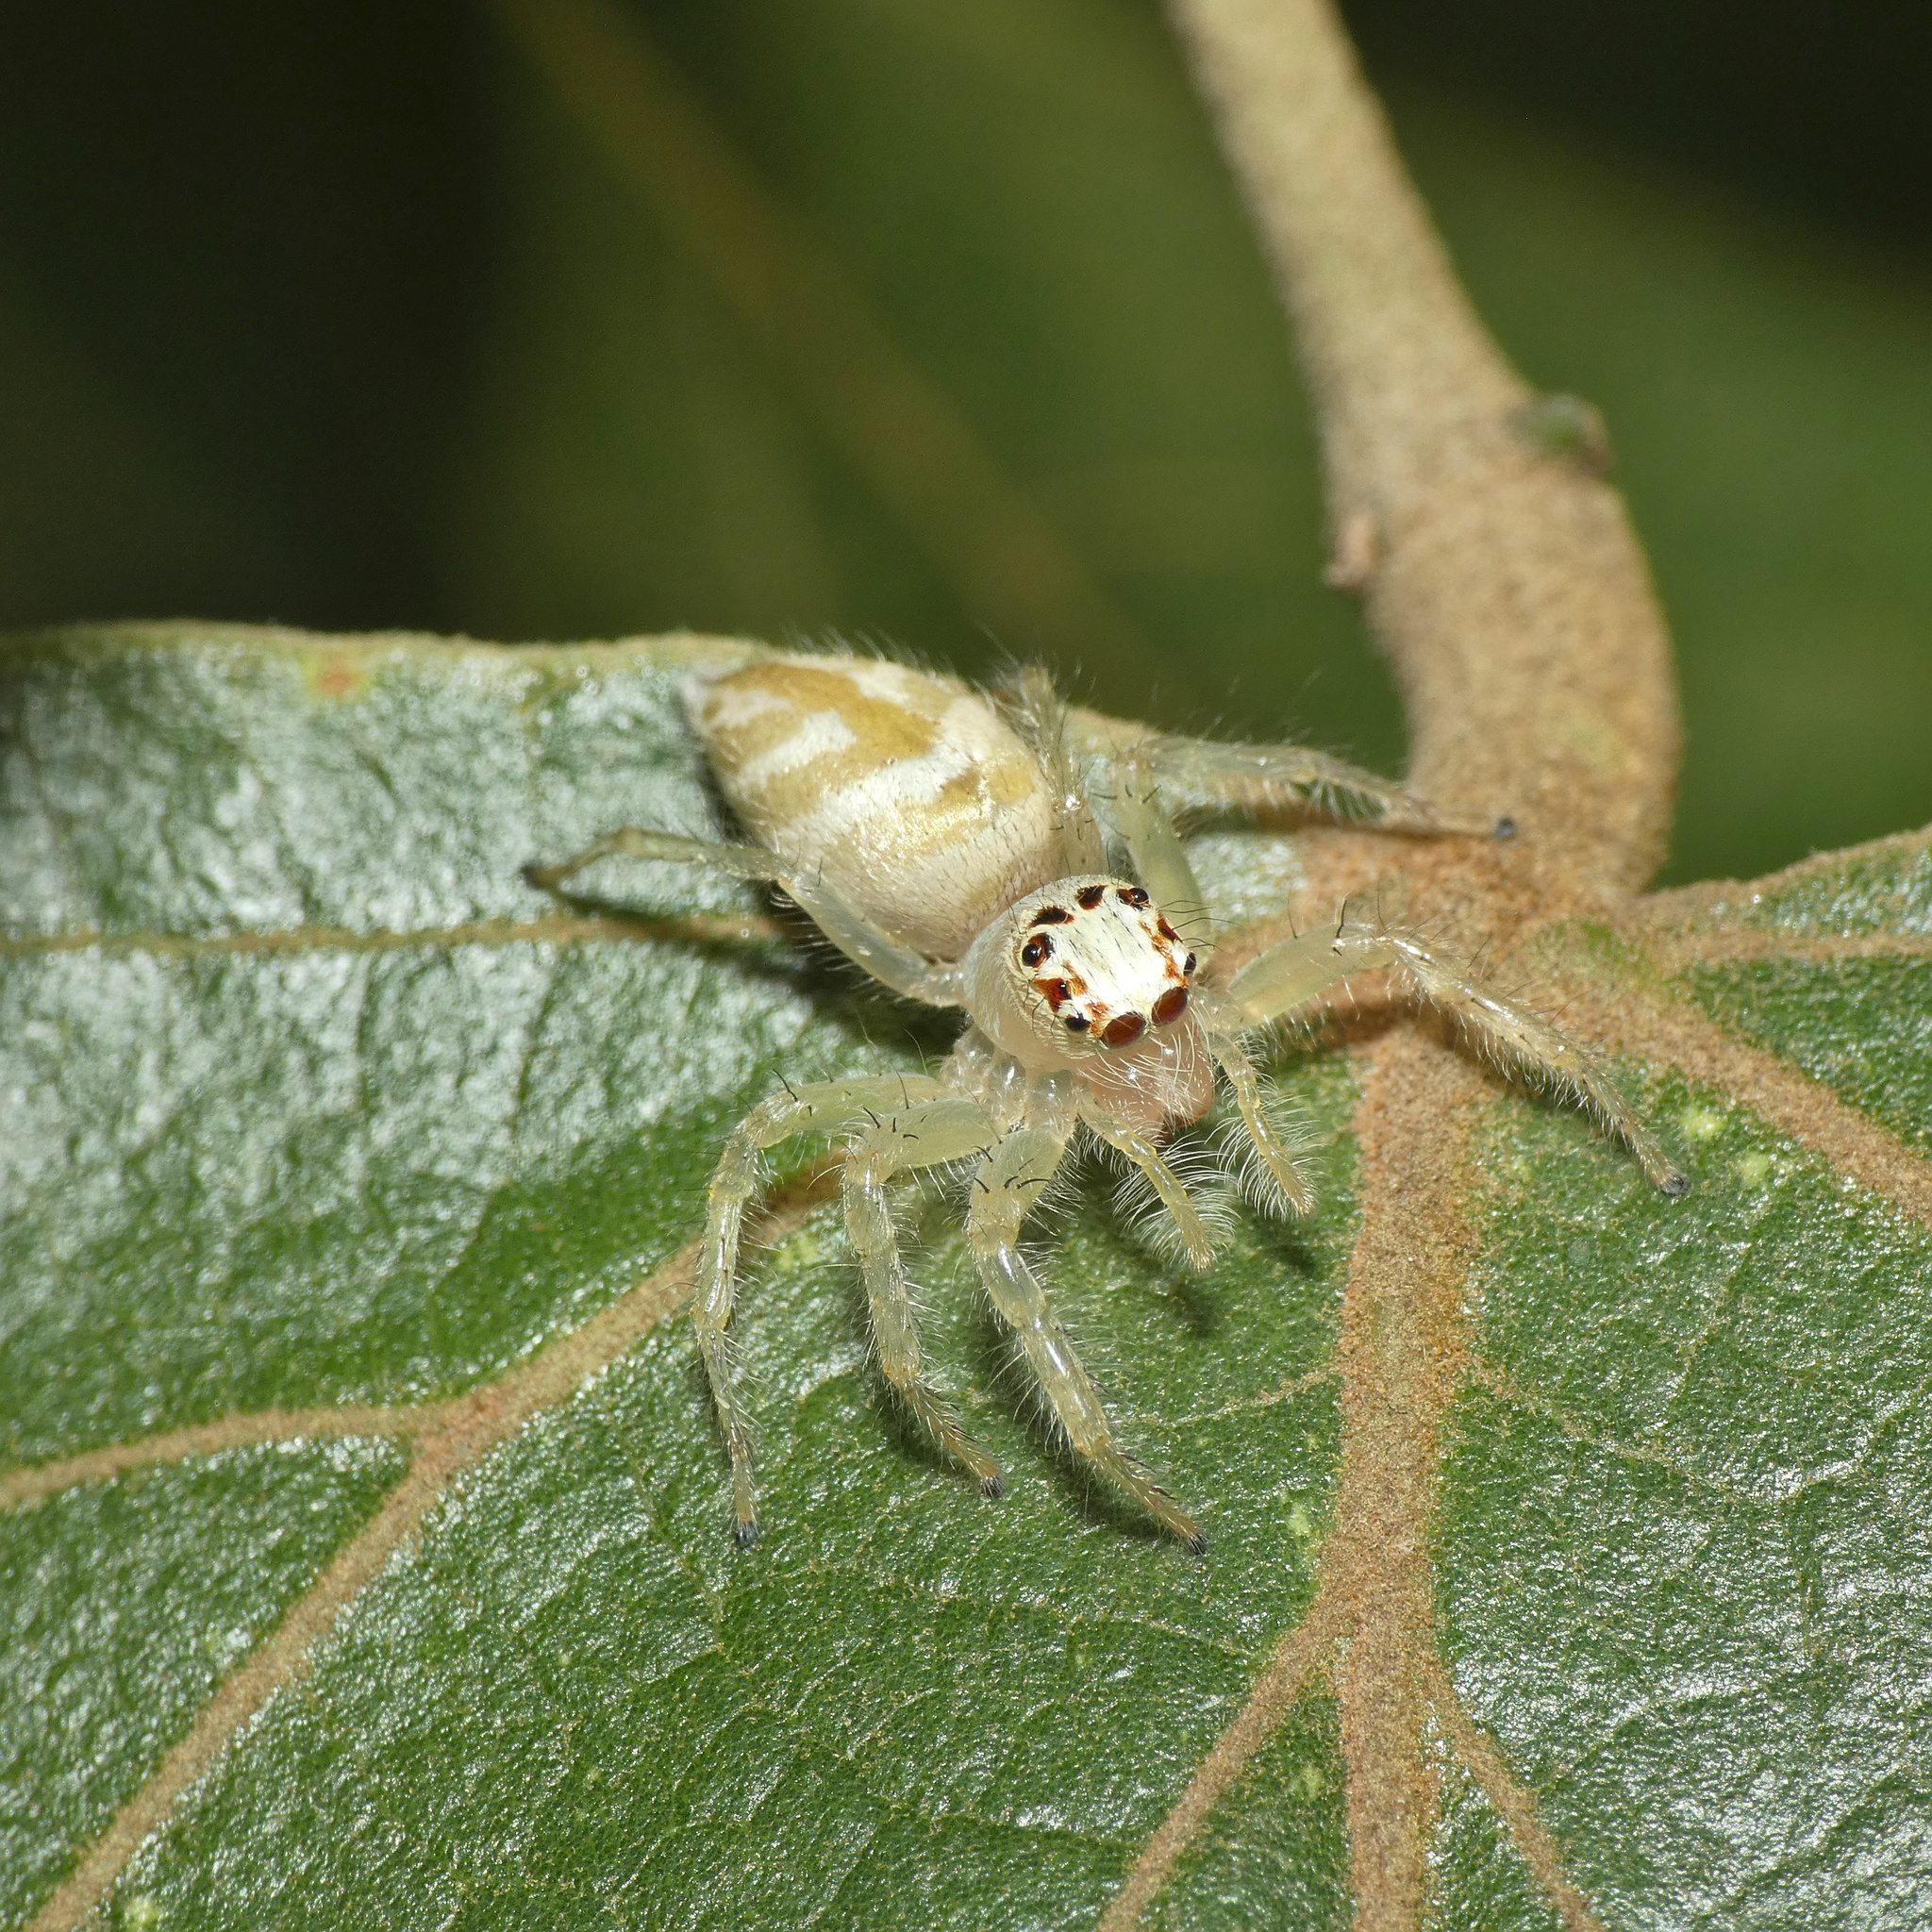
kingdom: Animalia
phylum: Arthropoda
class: Arachnida
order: Araneae
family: Salticidae
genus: Brancus
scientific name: Brancus mustelus
